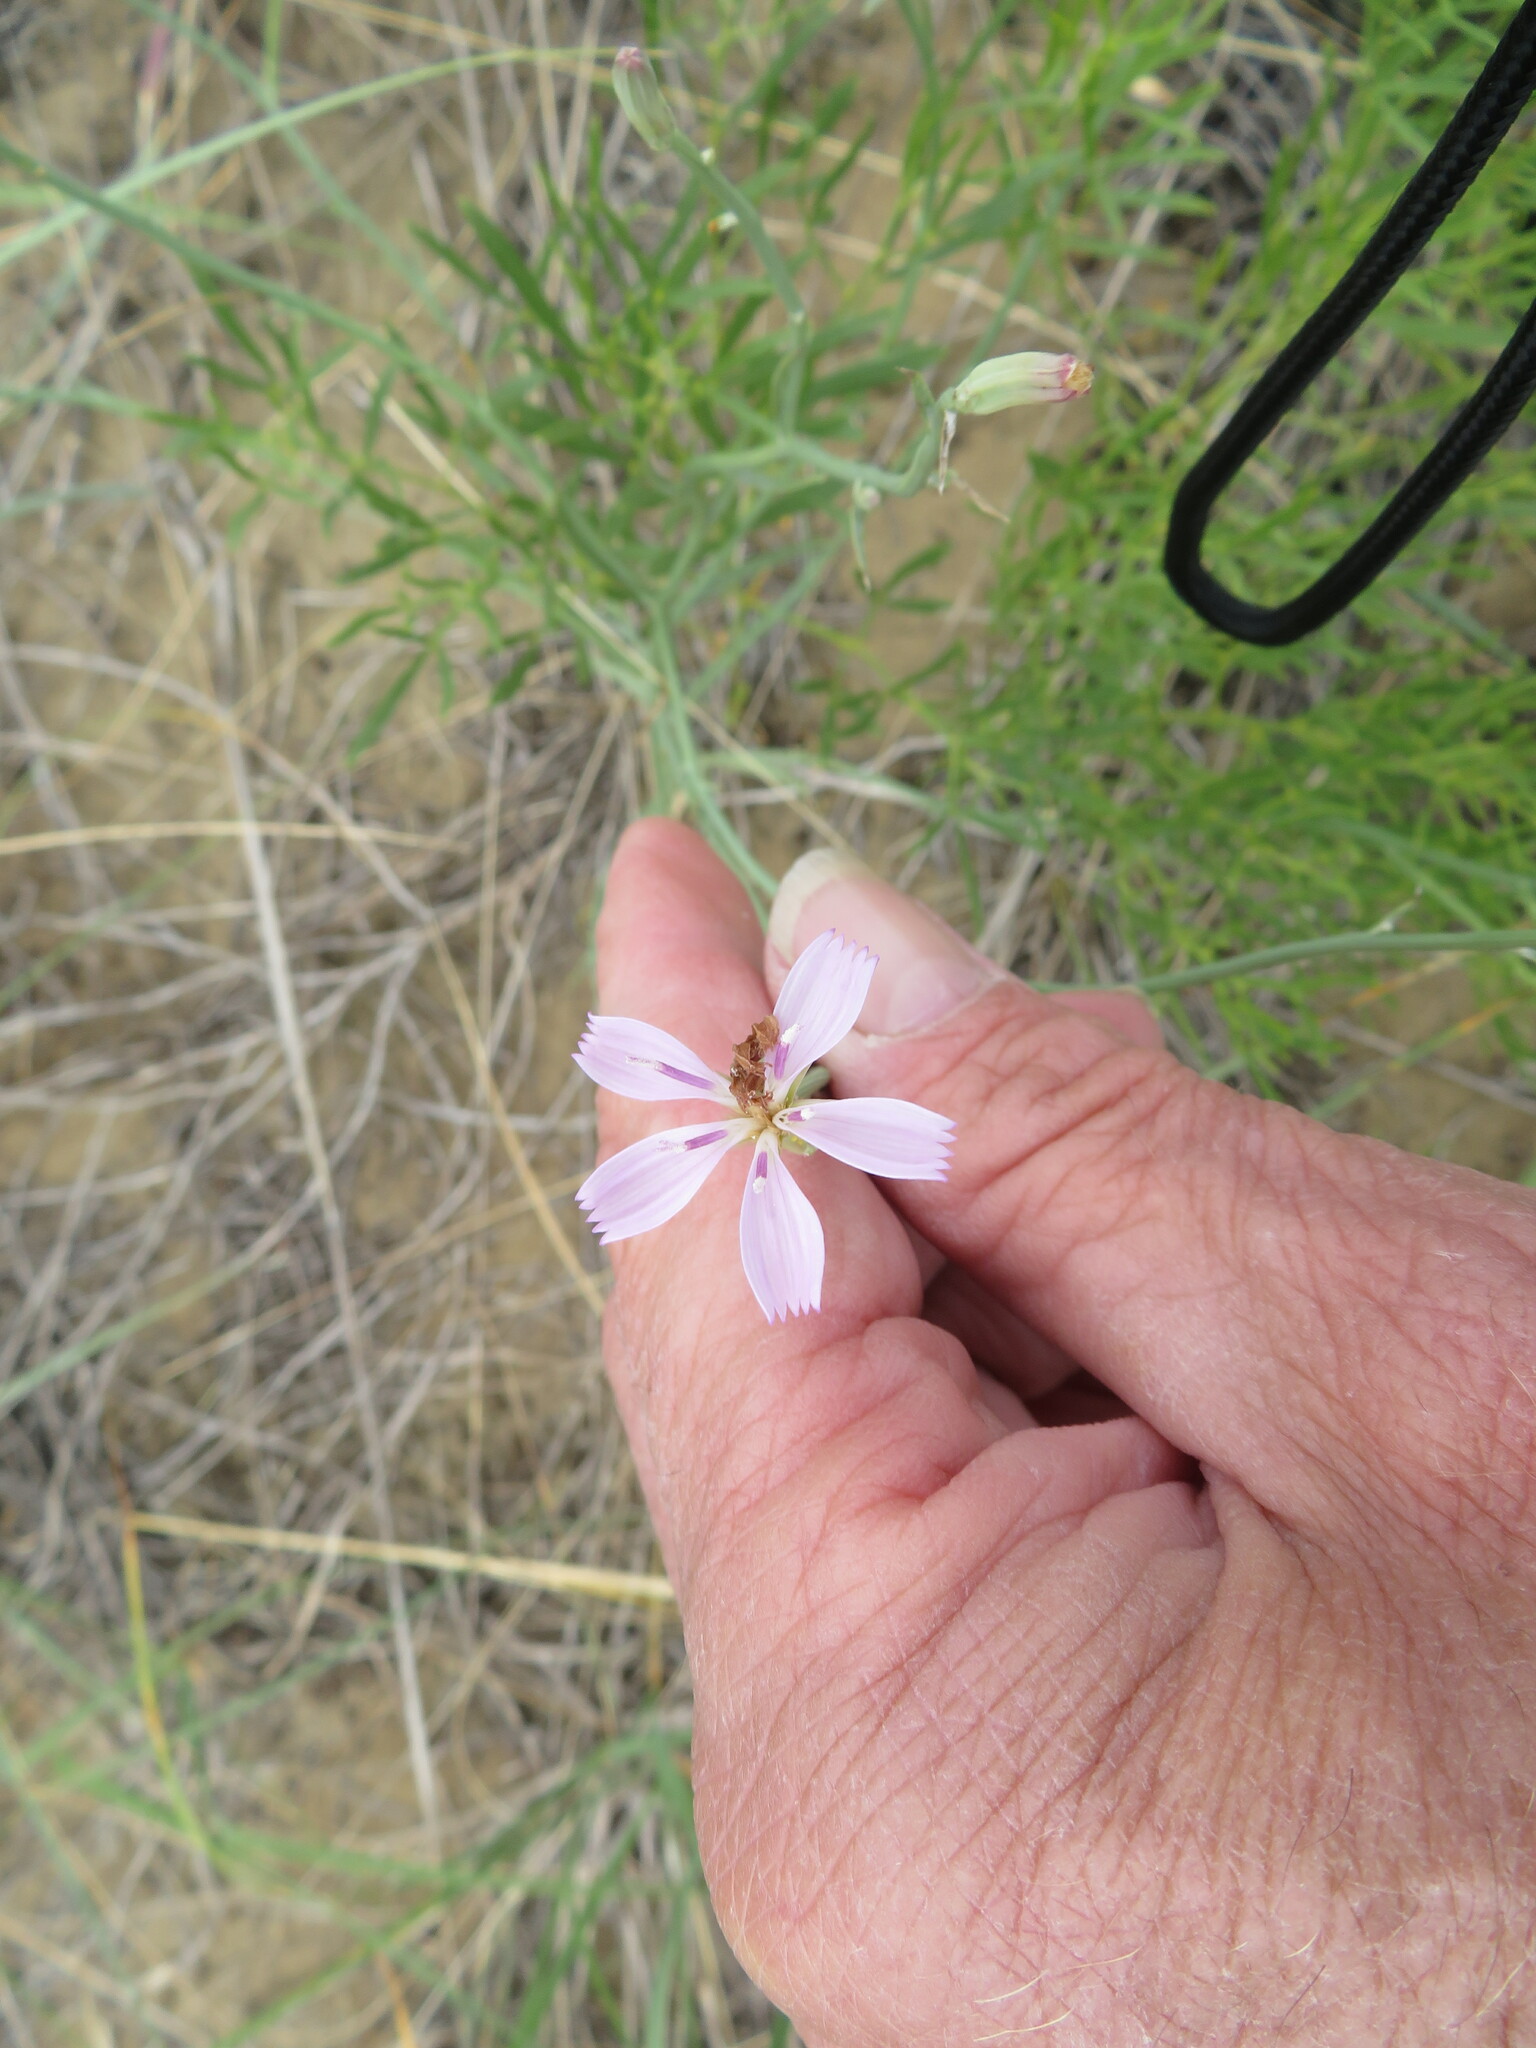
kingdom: Plantae
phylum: Tracheophyta
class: Magnoliopsida
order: Asterales
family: Asteraceae
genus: Lygodesmia
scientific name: Lygodesmia juncea
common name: Common skeletonweed
